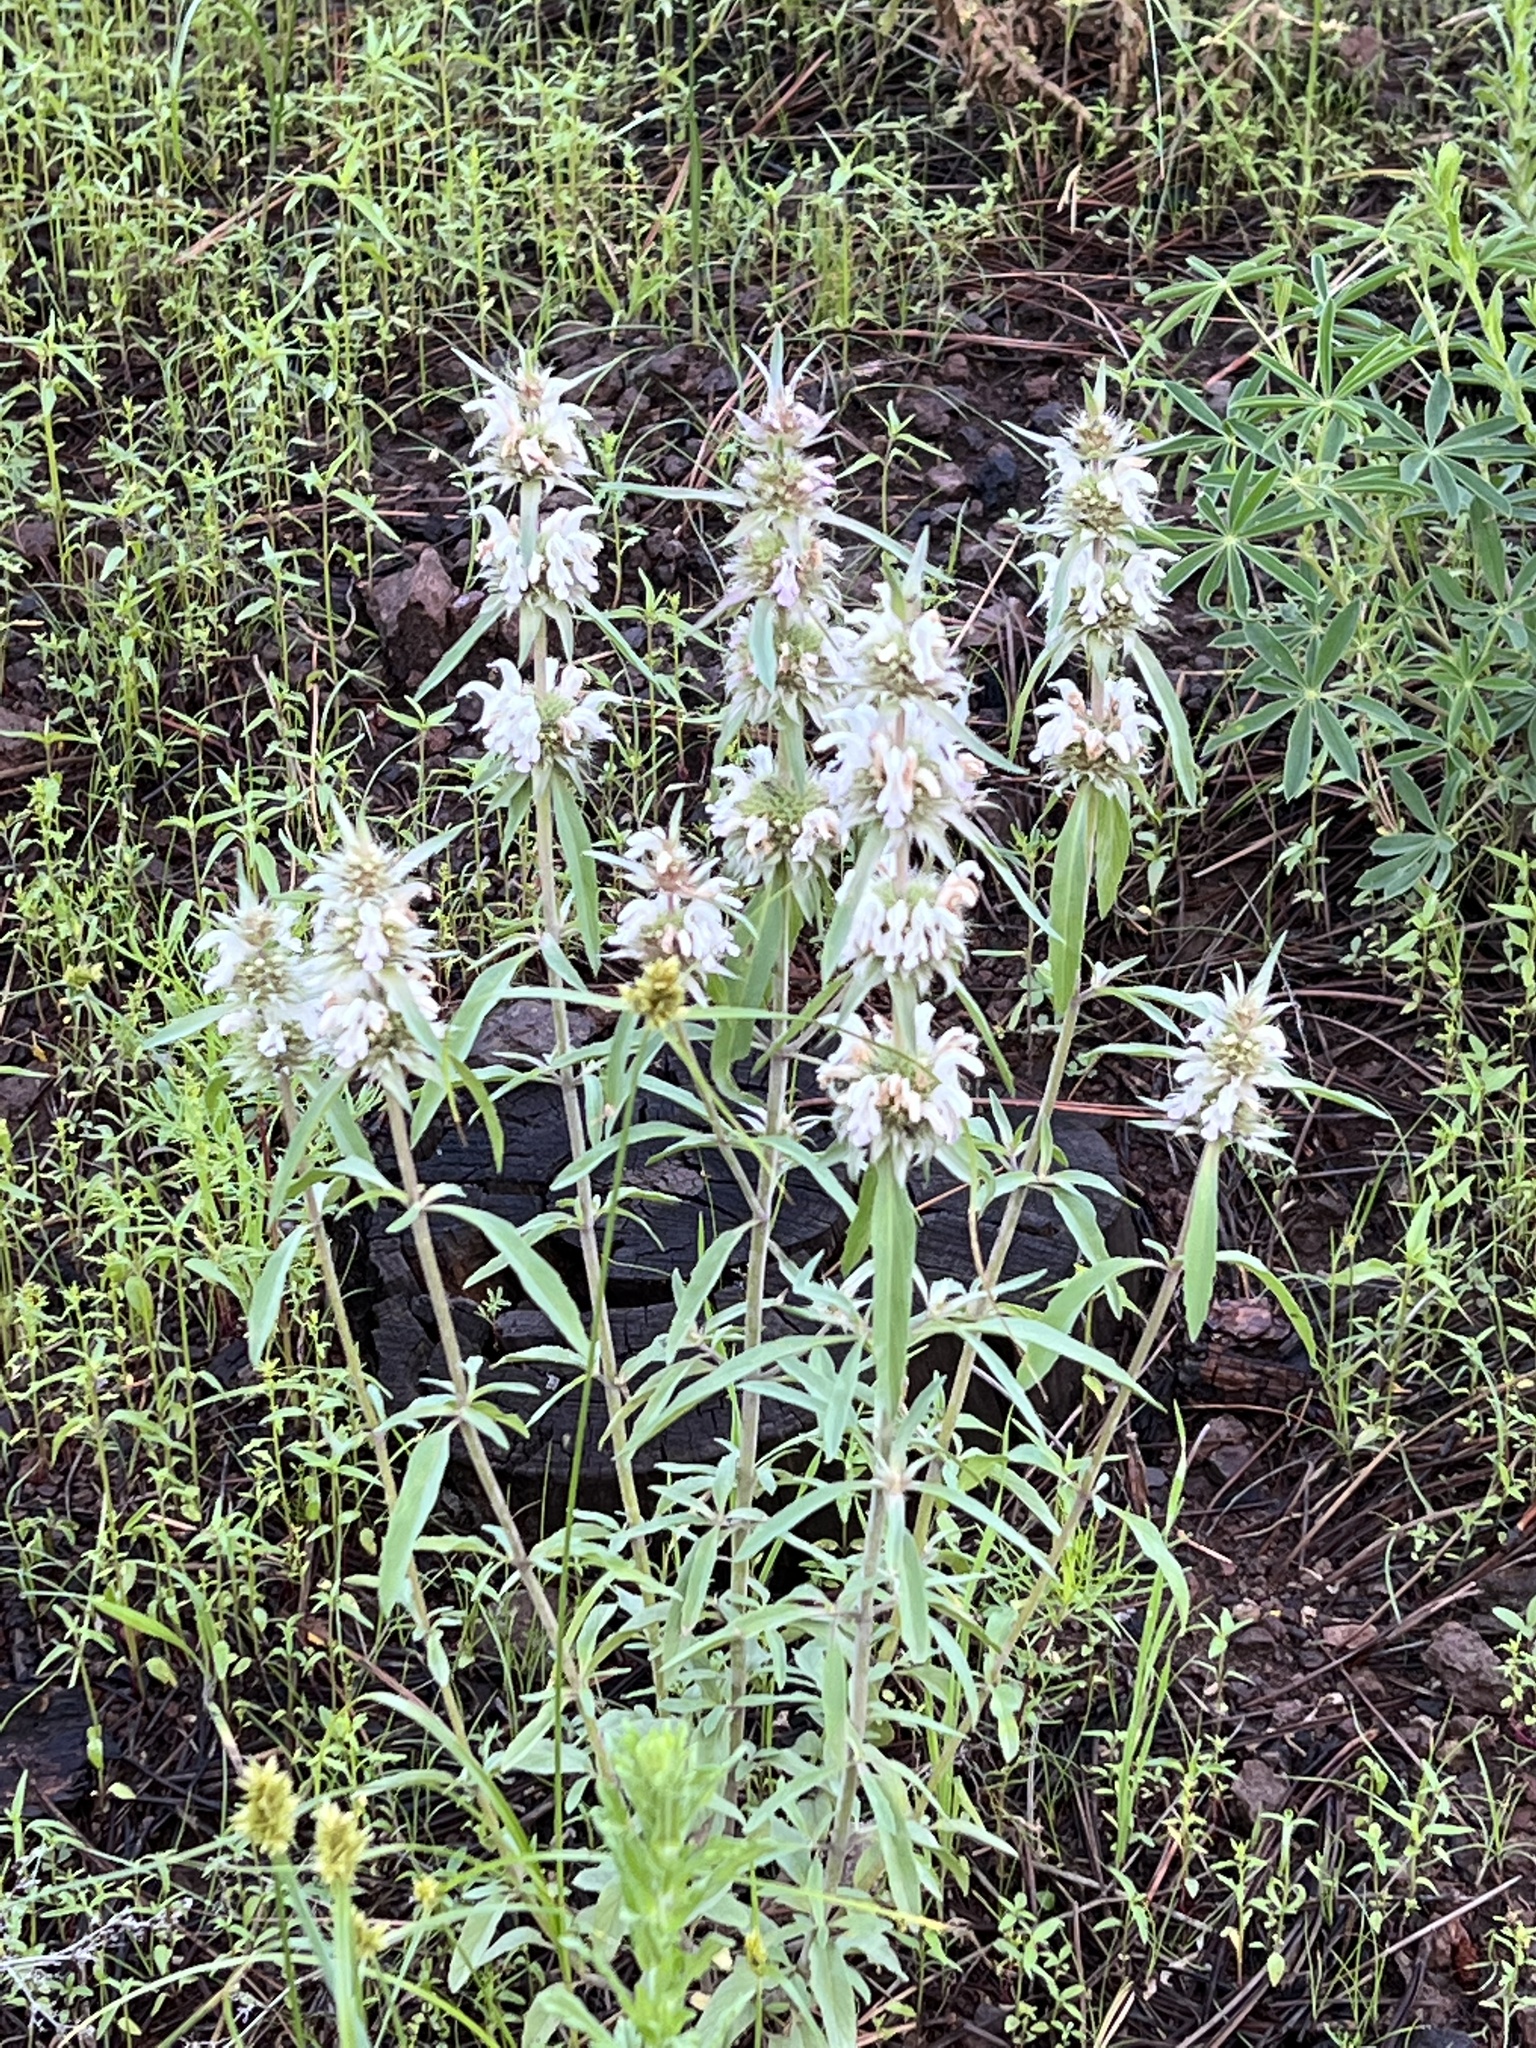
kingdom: Plantae
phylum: Tracheophyta
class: Magnoliopsida
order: Lamiales
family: Lamiaceae
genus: Monarda
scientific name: Monarda citriodora
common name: Lemon beebalm
